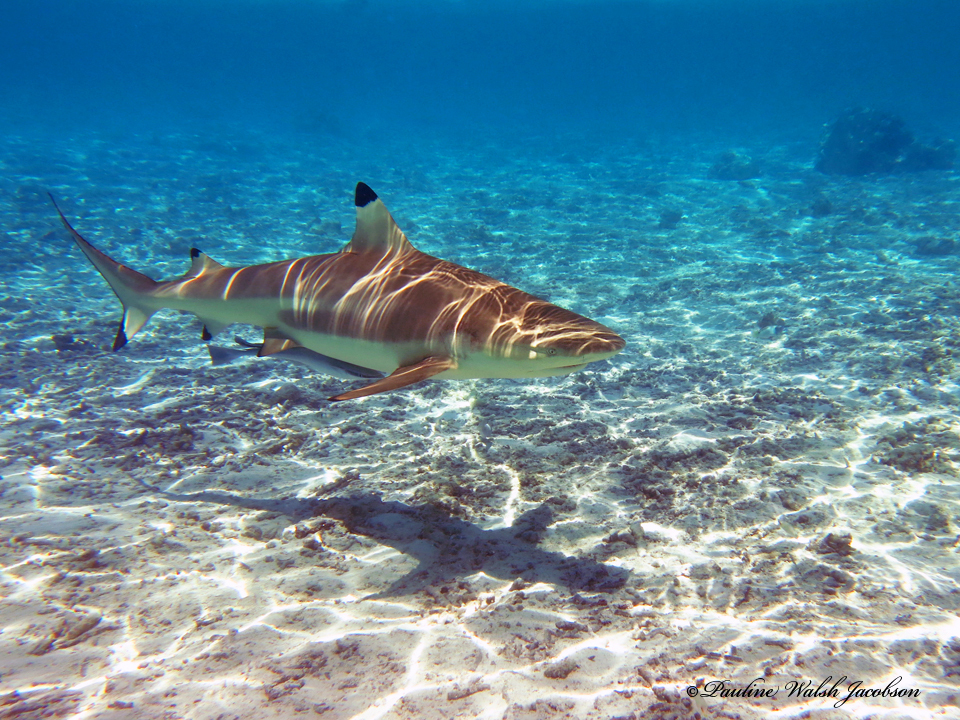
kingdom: Animalia
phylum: Chordata
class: Elasmobranchii
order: Carcharhiniformes
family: Carcharhinidae
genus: Carcharhinus
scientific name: Carcharhinus melanopterus
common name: Blacktip reef shark
